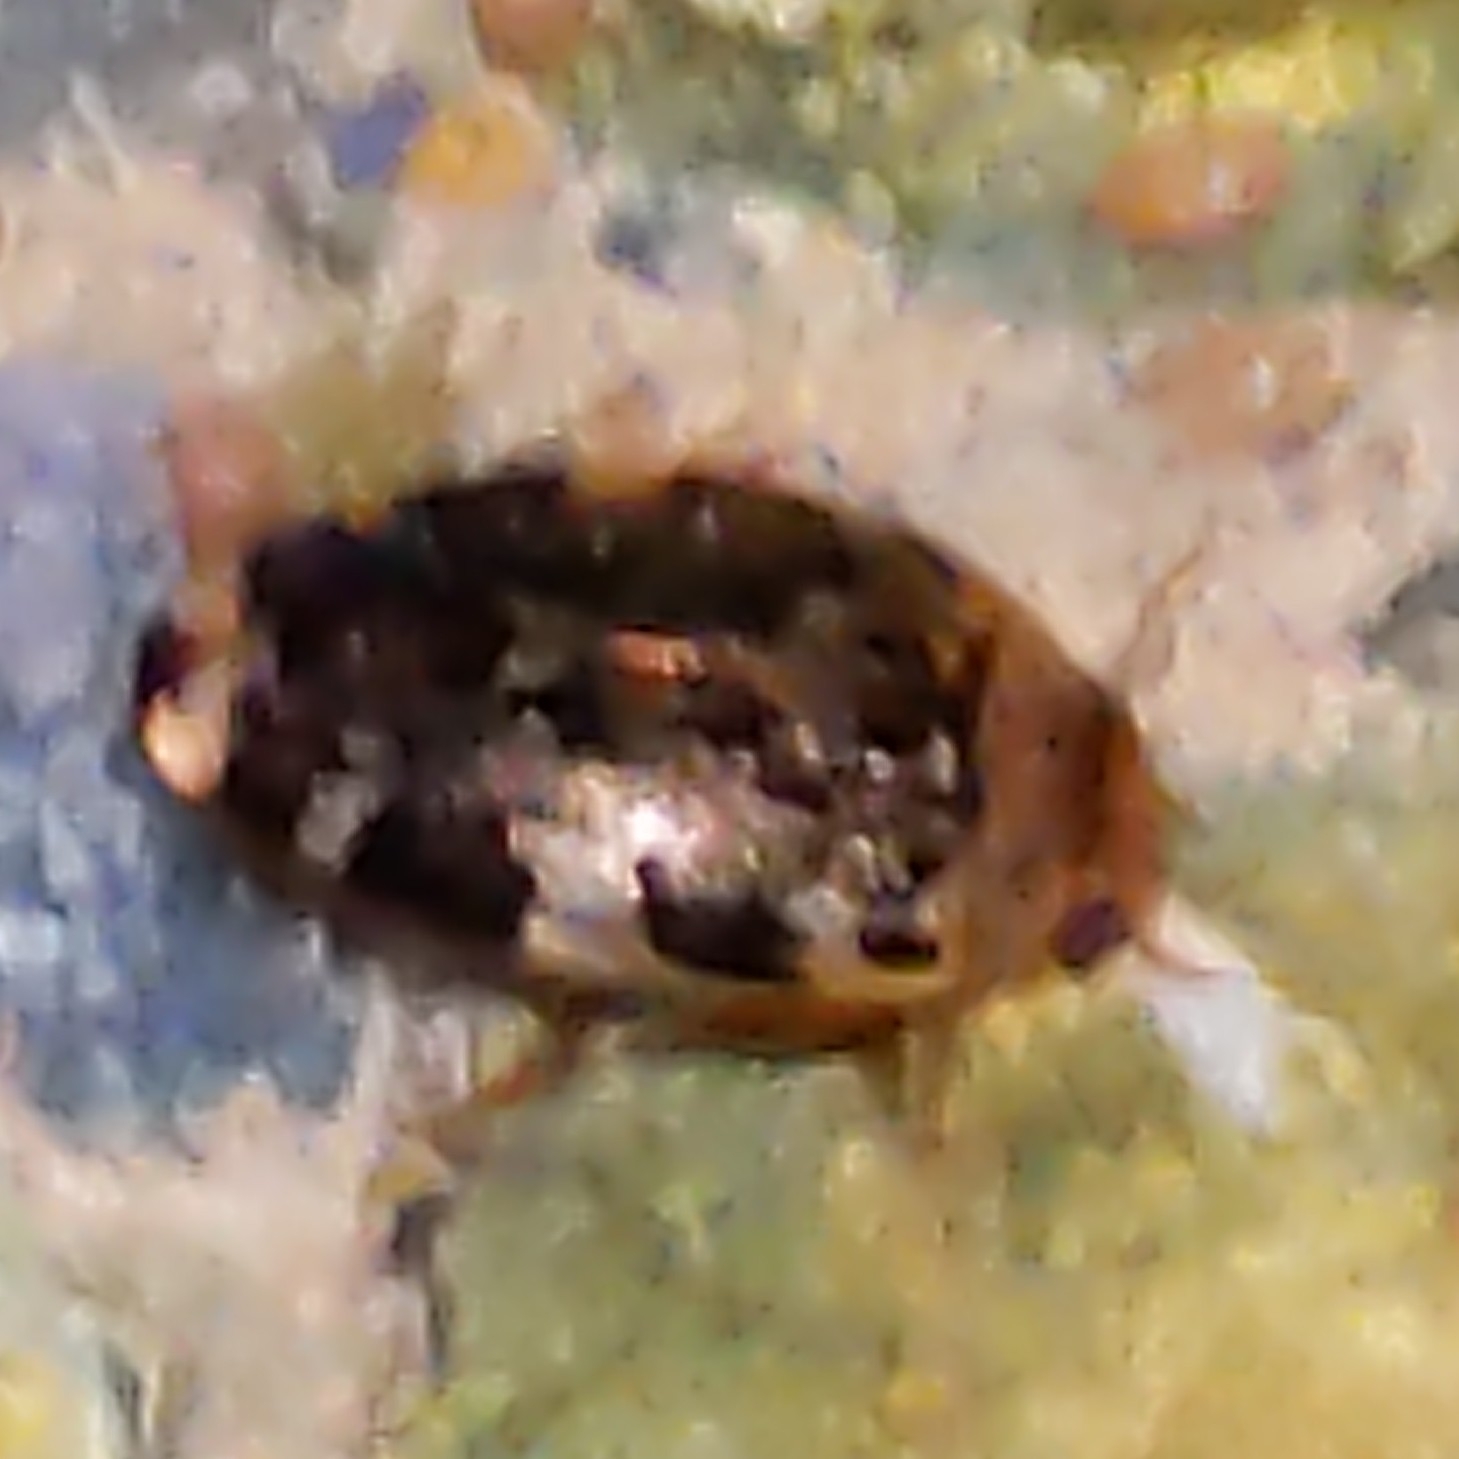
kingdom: Animalia
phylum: Arthropoda
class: Insecta
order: Coleoptera
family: Dytiscidae
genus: Laccophilus
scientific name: Laccophilus maculosus
